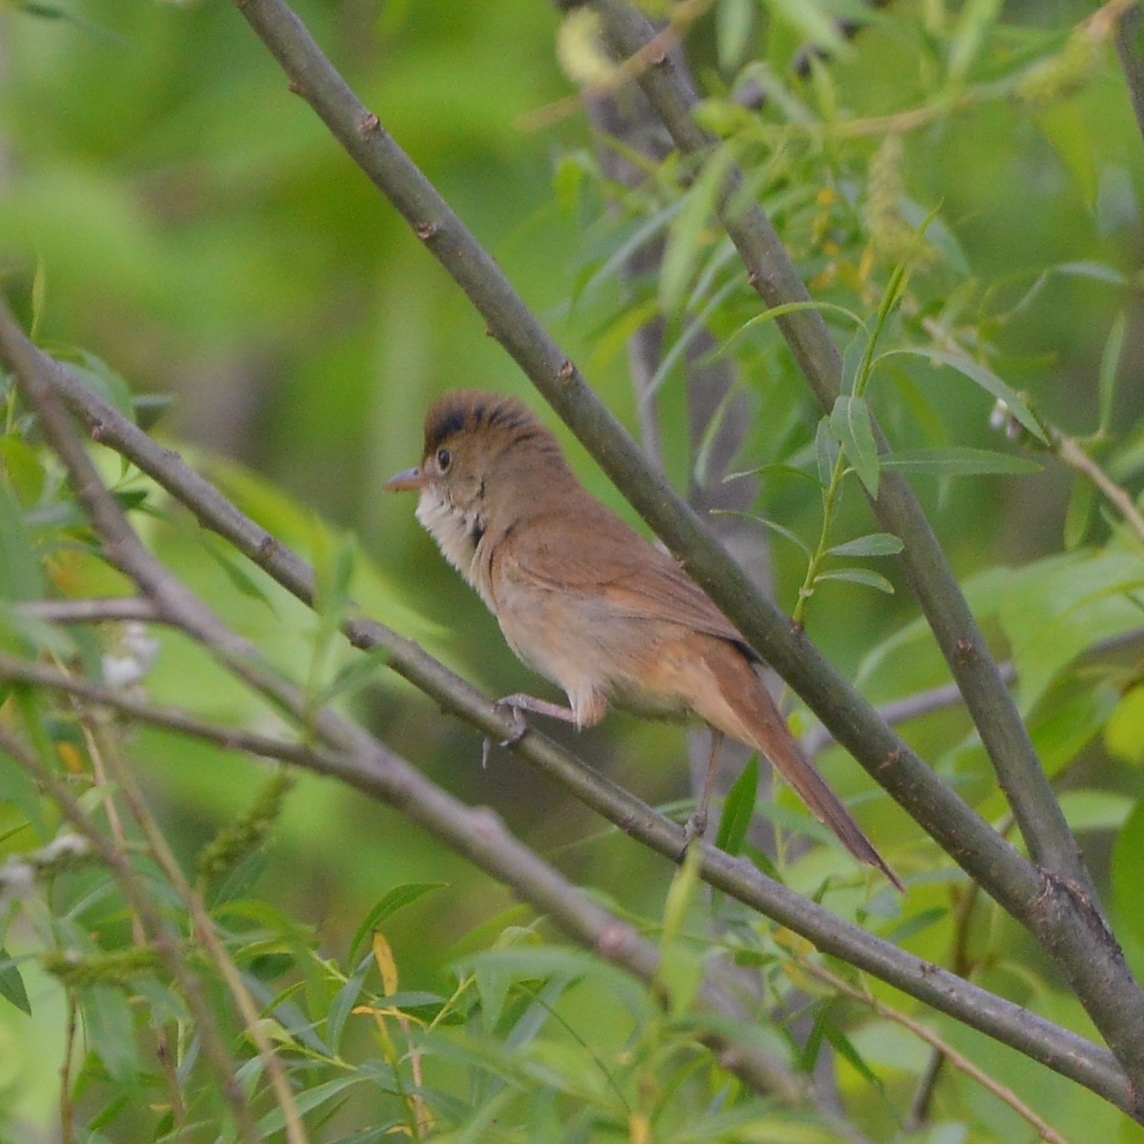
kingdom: Animalia
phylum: Chordata
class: Aves
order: Passeriformes
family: Acrocephalidae
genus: Iduna
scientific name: Iduna aedon
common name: Thick-billed warbler
